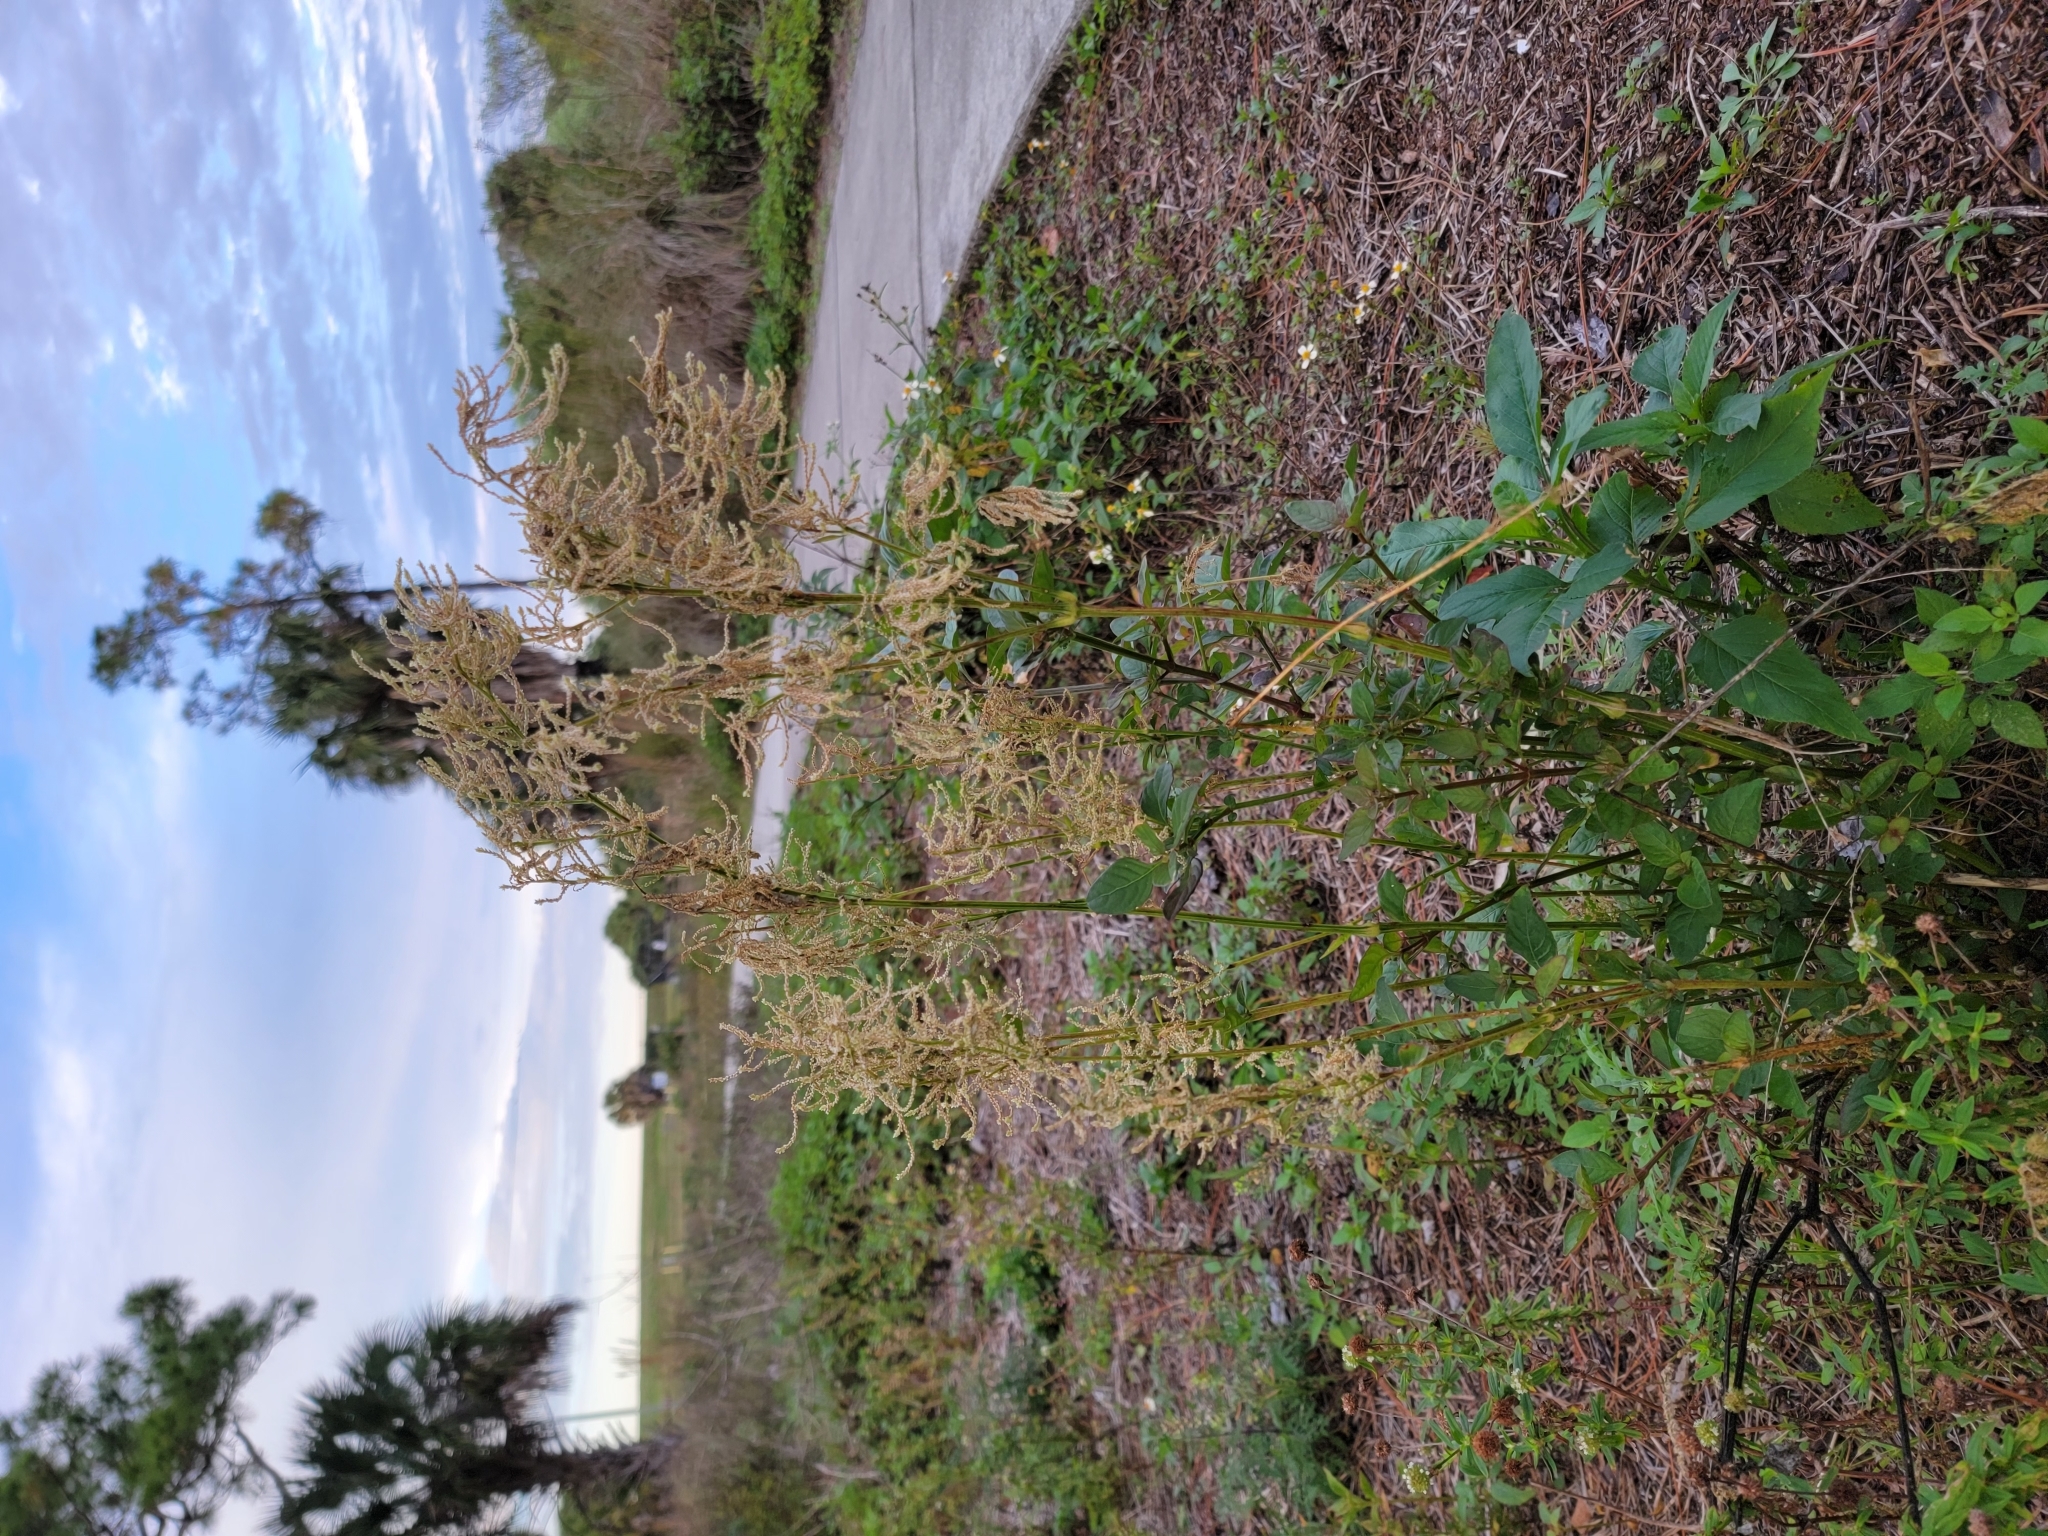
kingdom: Plantae
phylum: Tracheophyta
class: Magnoliopsida
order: Caryophyllales
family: Amaranthaceae
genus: Iresine
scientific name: Iresine diffusa
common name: Juba's-bush
